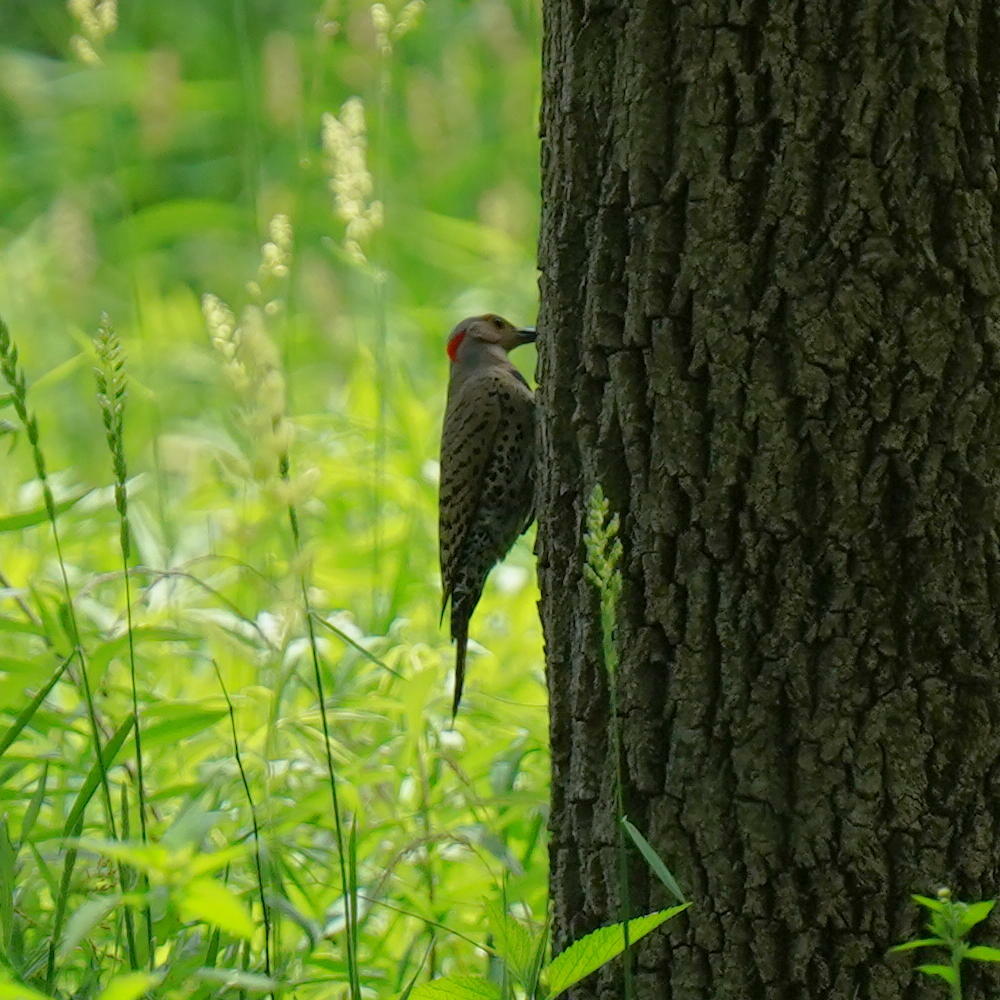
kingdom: Animalia
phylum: Chordata
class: Aves
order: Piciformes
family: Picidae
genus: Colaptes
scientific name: Colaptes auratus
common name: Northern flicker
